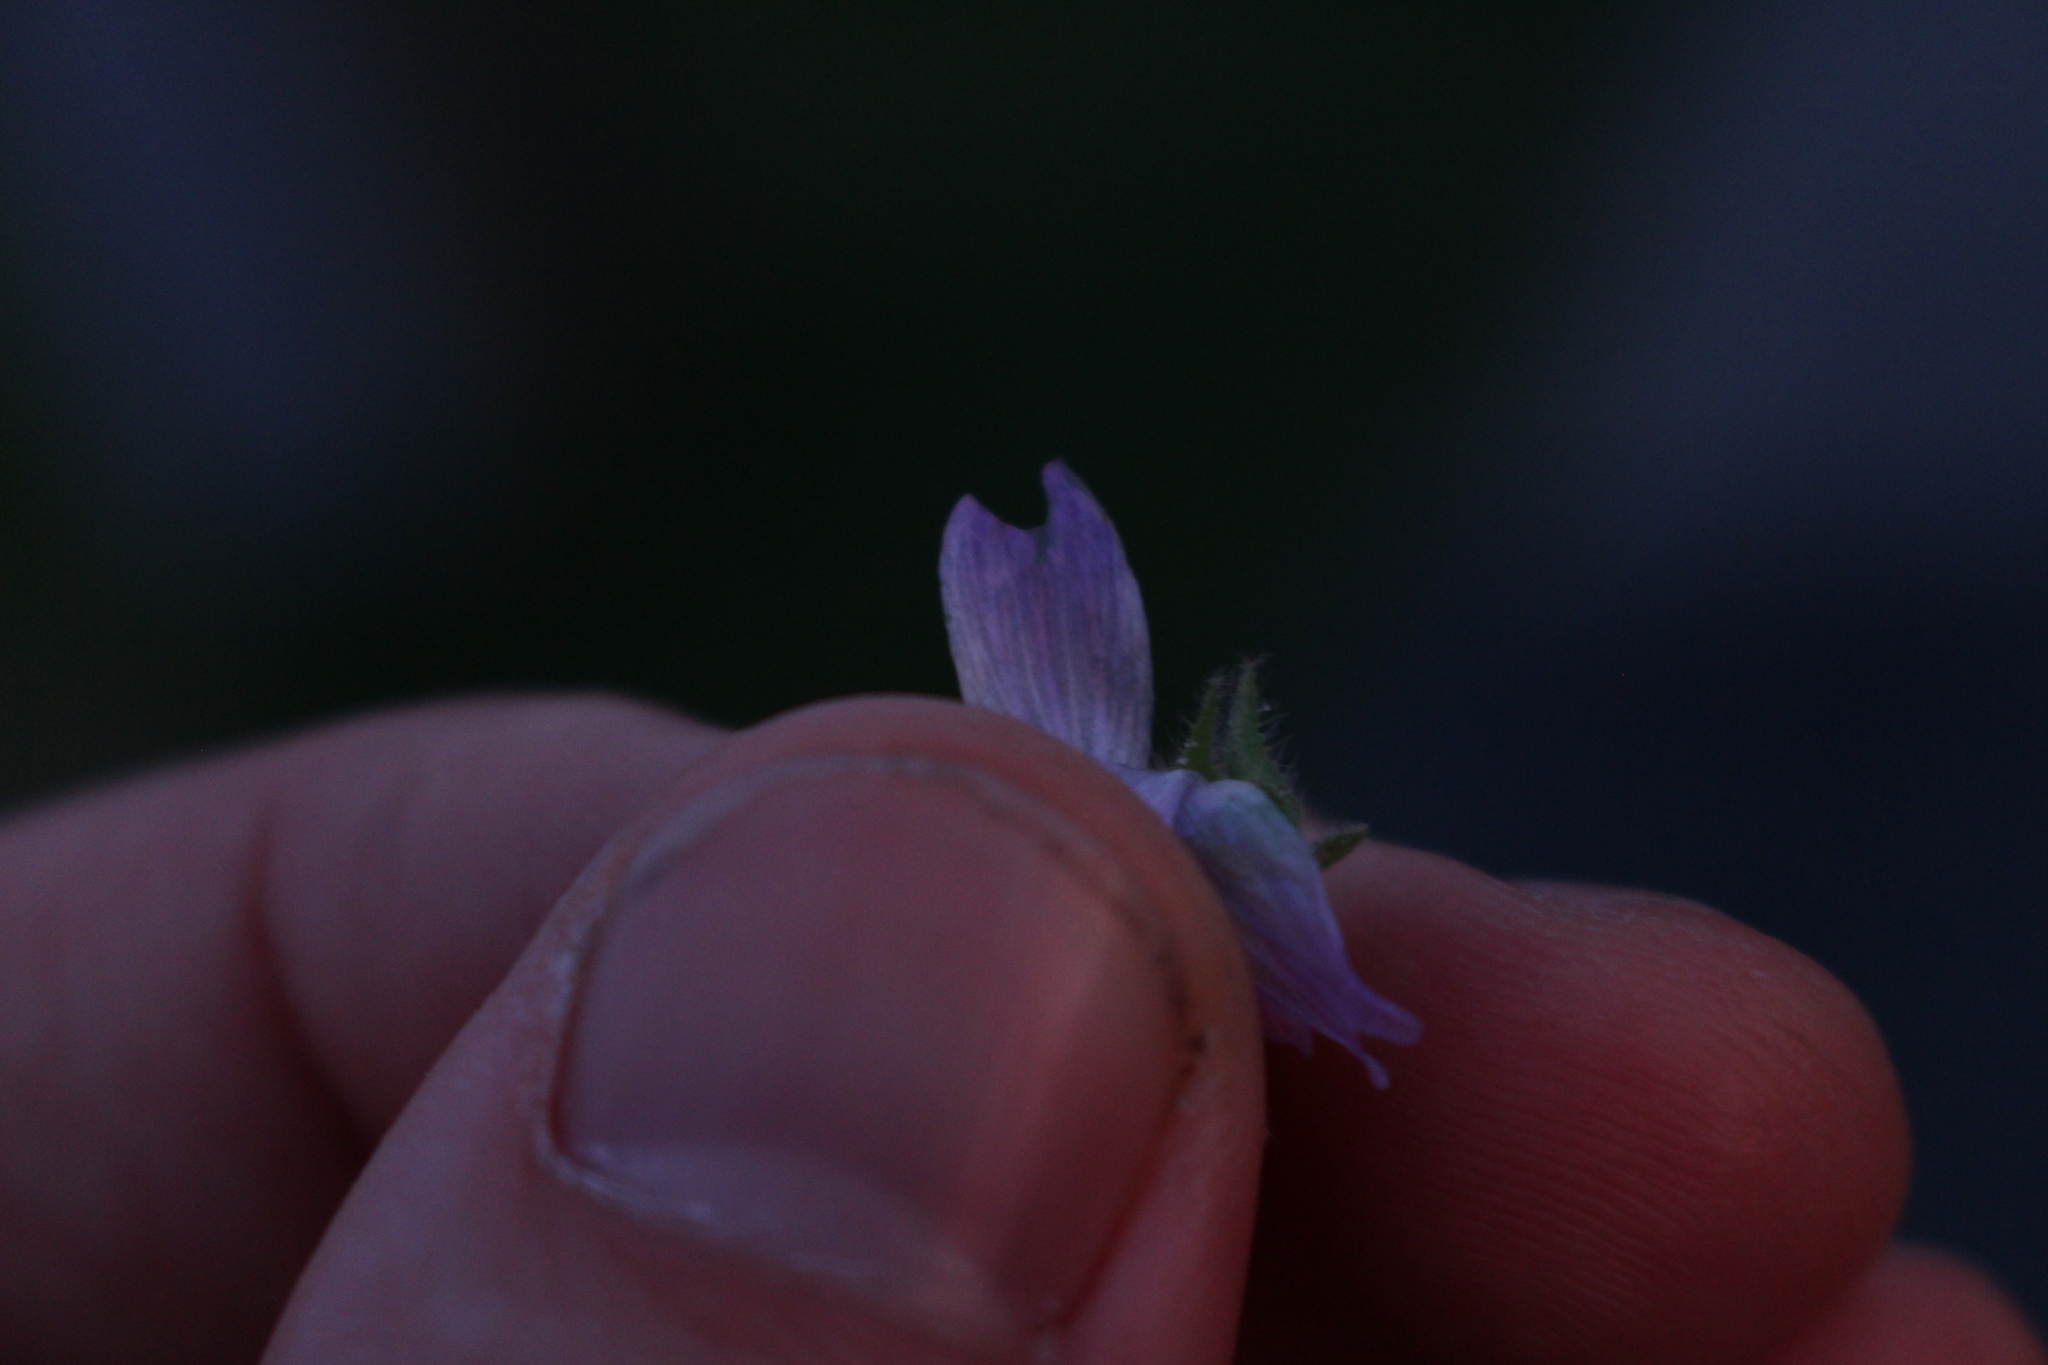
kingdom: Plantae
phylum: Tracheophyta
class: Magnoliopsida
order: Malvales
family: Malvaceae
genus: Malva
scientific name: Malva multiflora
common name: Cheeseweed
